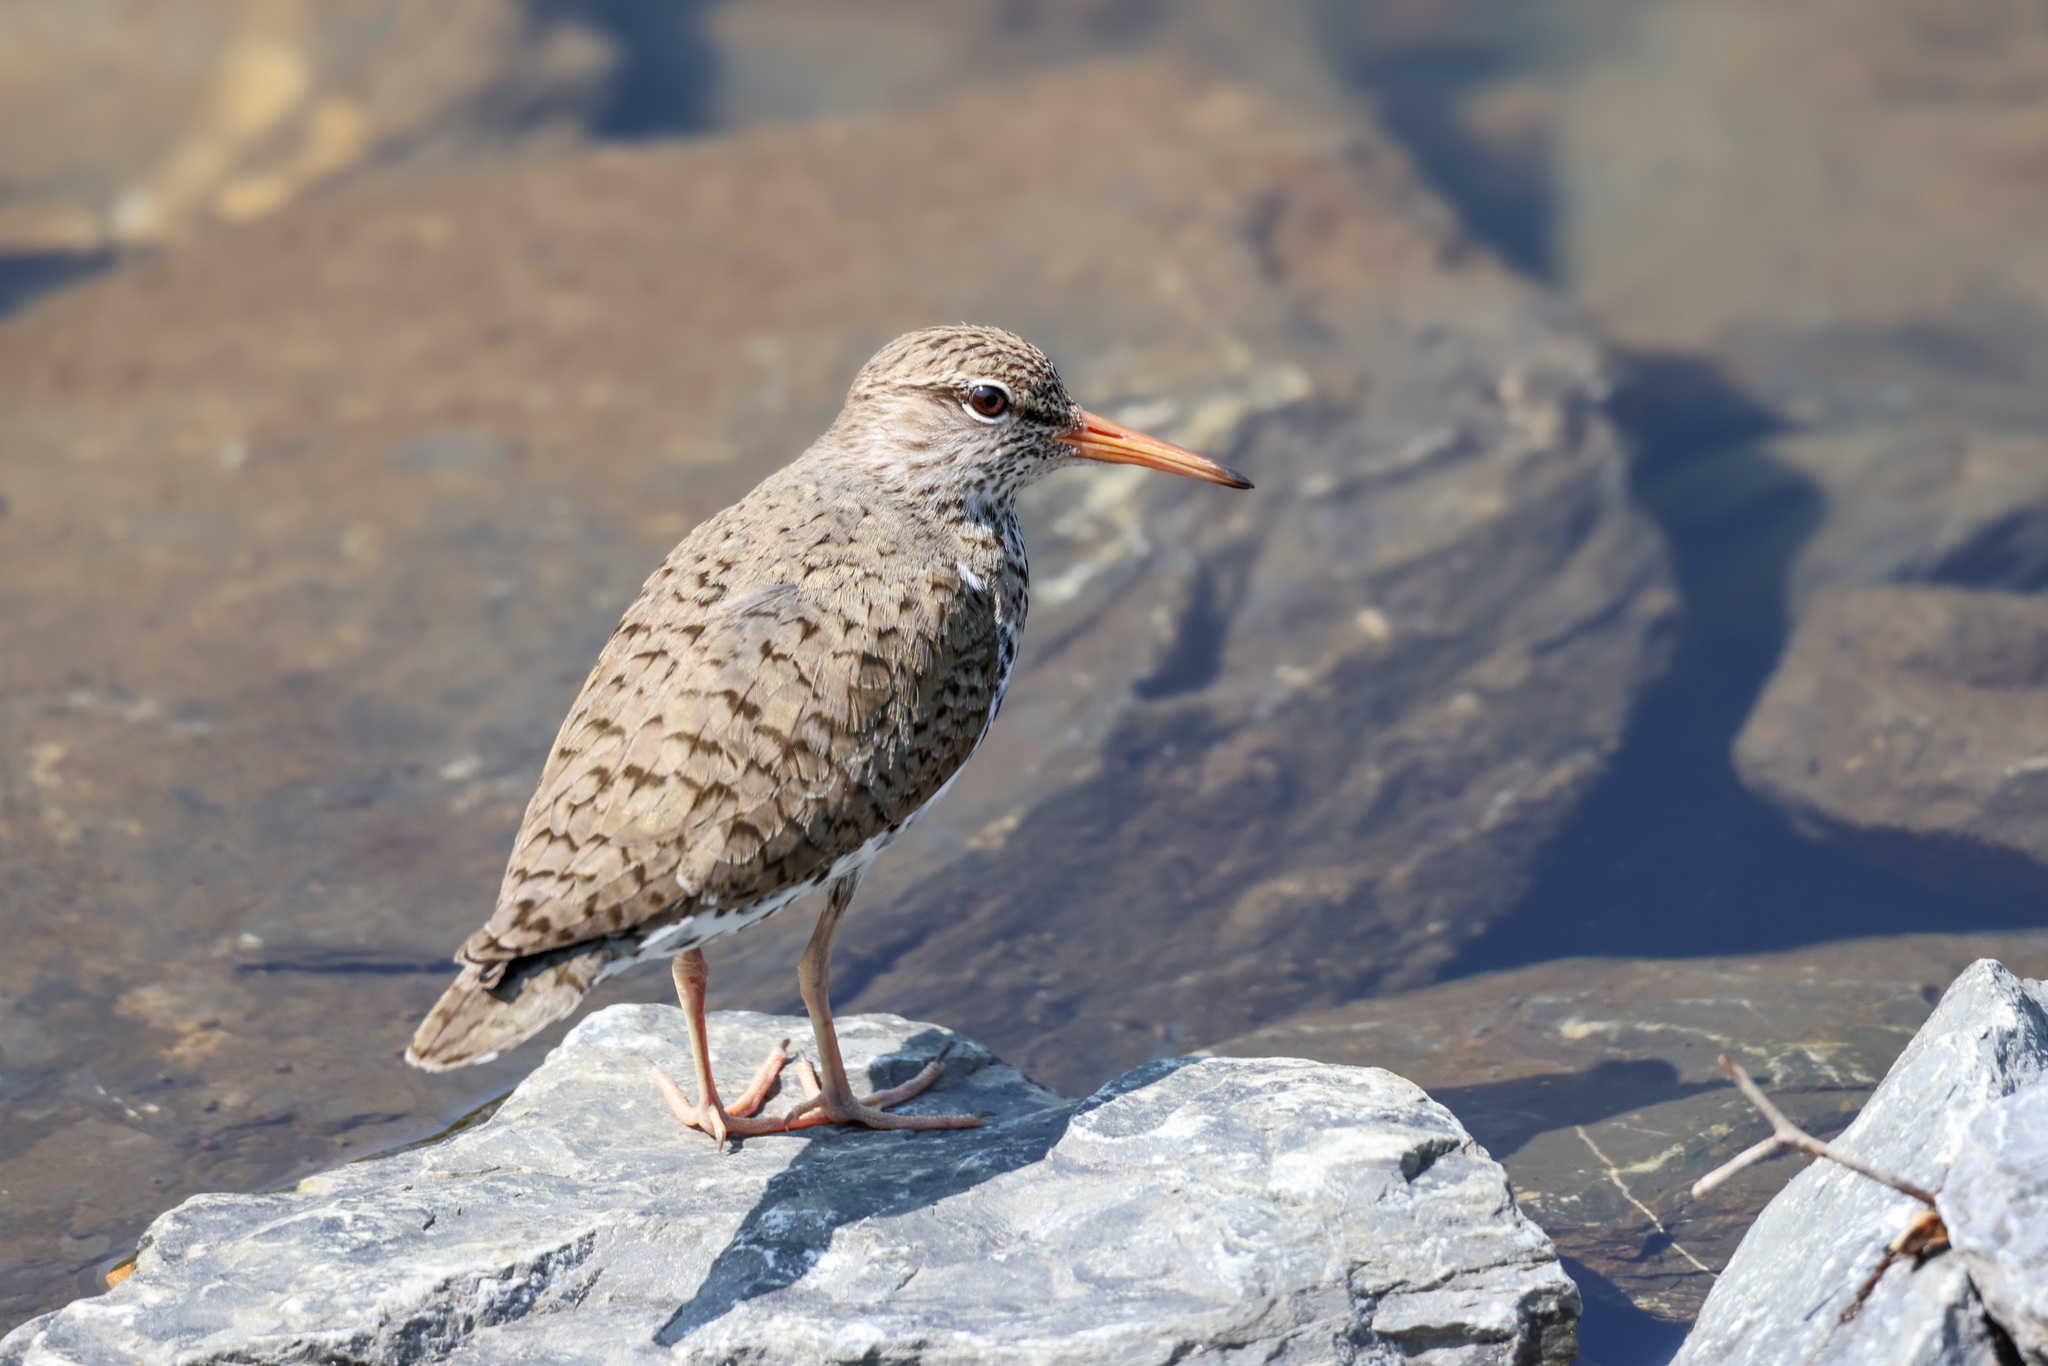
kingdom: Animalia
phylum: Chordata
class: Aves
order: Charadriiformes
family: Scolopacidae
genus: Actitis
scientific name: Actitis macularius
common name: Spotted sandpiper
